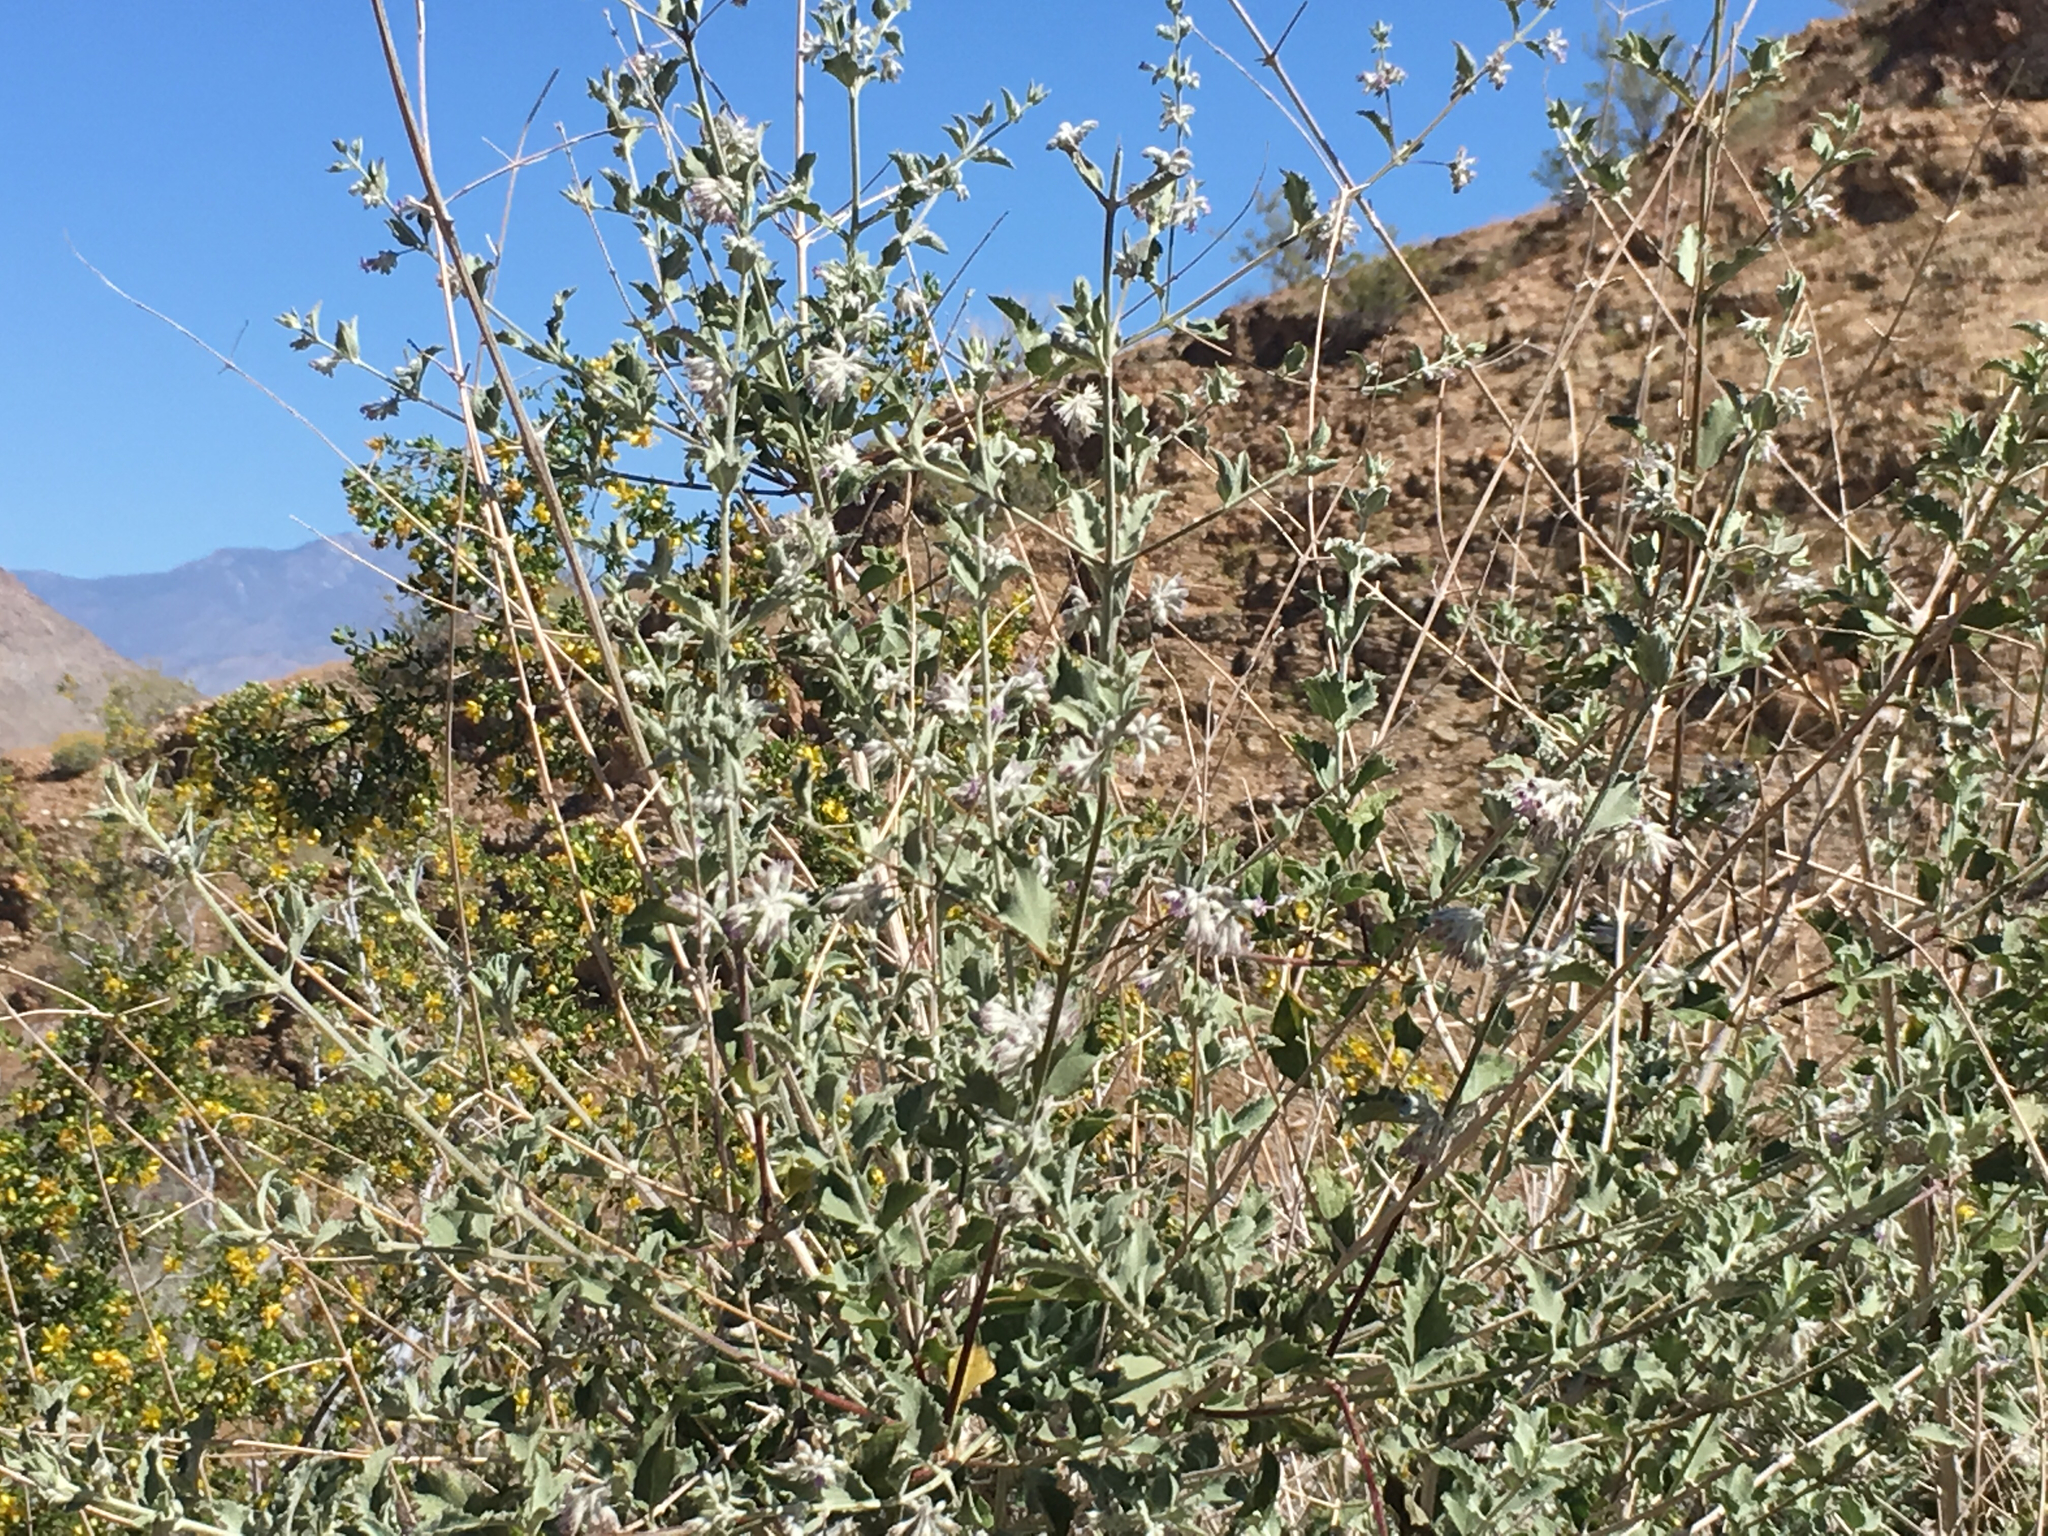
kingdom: Plantae
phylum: Tracheophyta
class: Magnoliopsida
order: Lamiales
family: Lamiaceae
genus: Condea
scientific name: Condea emoryi
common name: Chia
